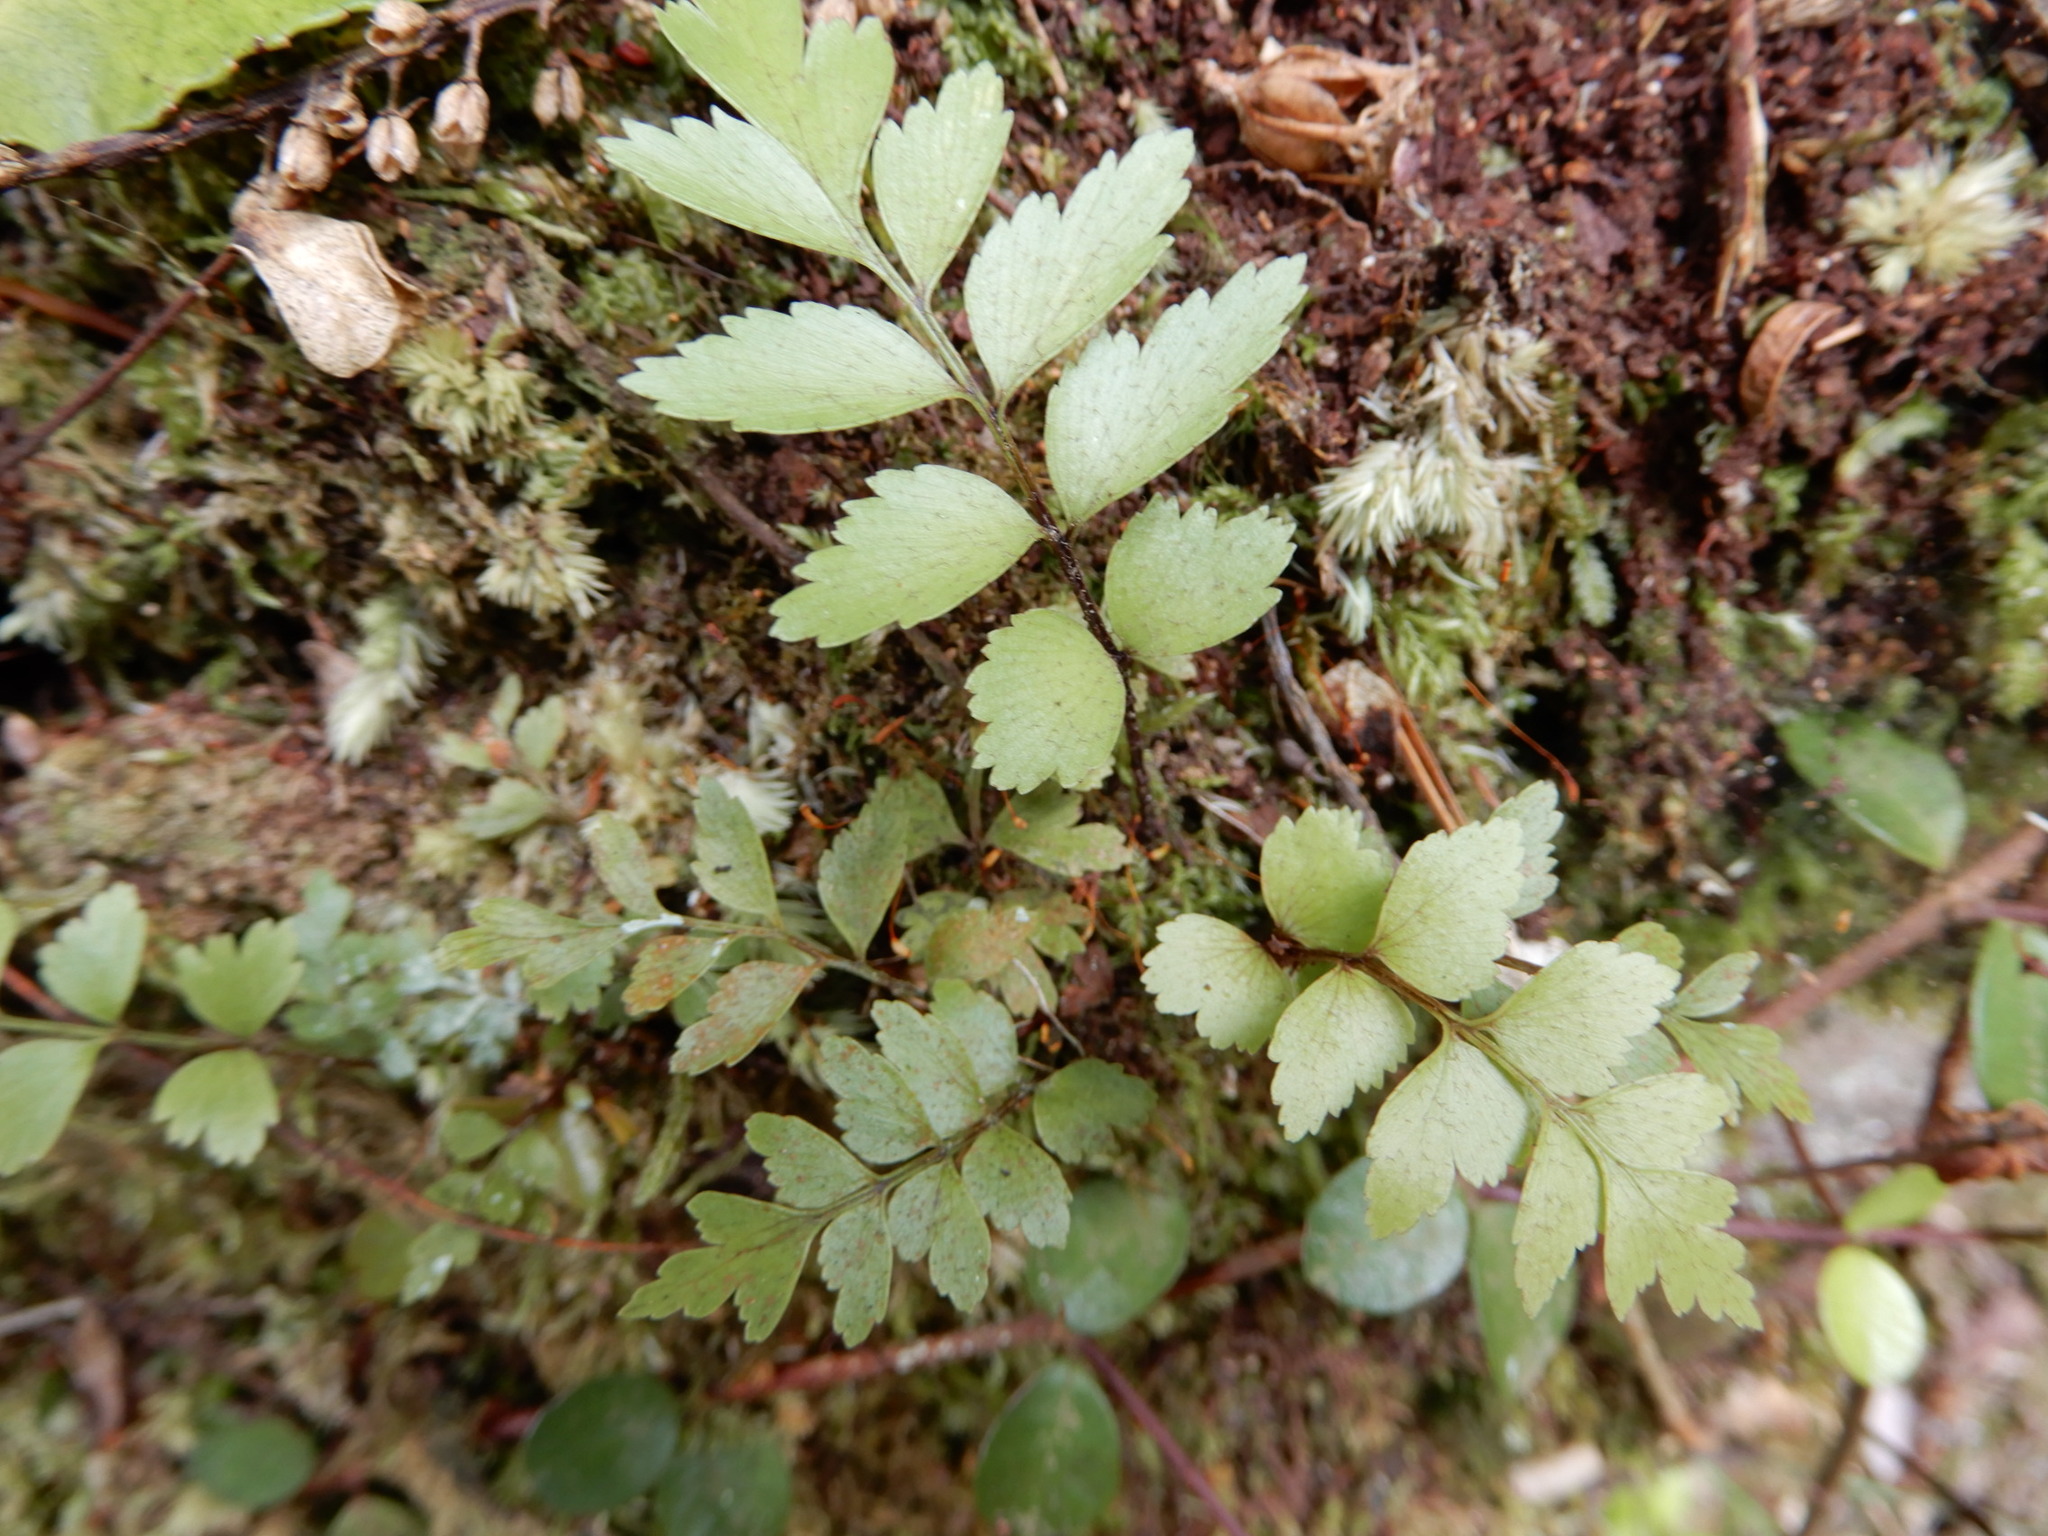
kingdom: Plantae
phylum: Tracheophyta
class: Polypodiopsida
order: Polypodiales
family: Aspleniaceae
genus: Asplenium
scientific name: Asplenium polyodon
